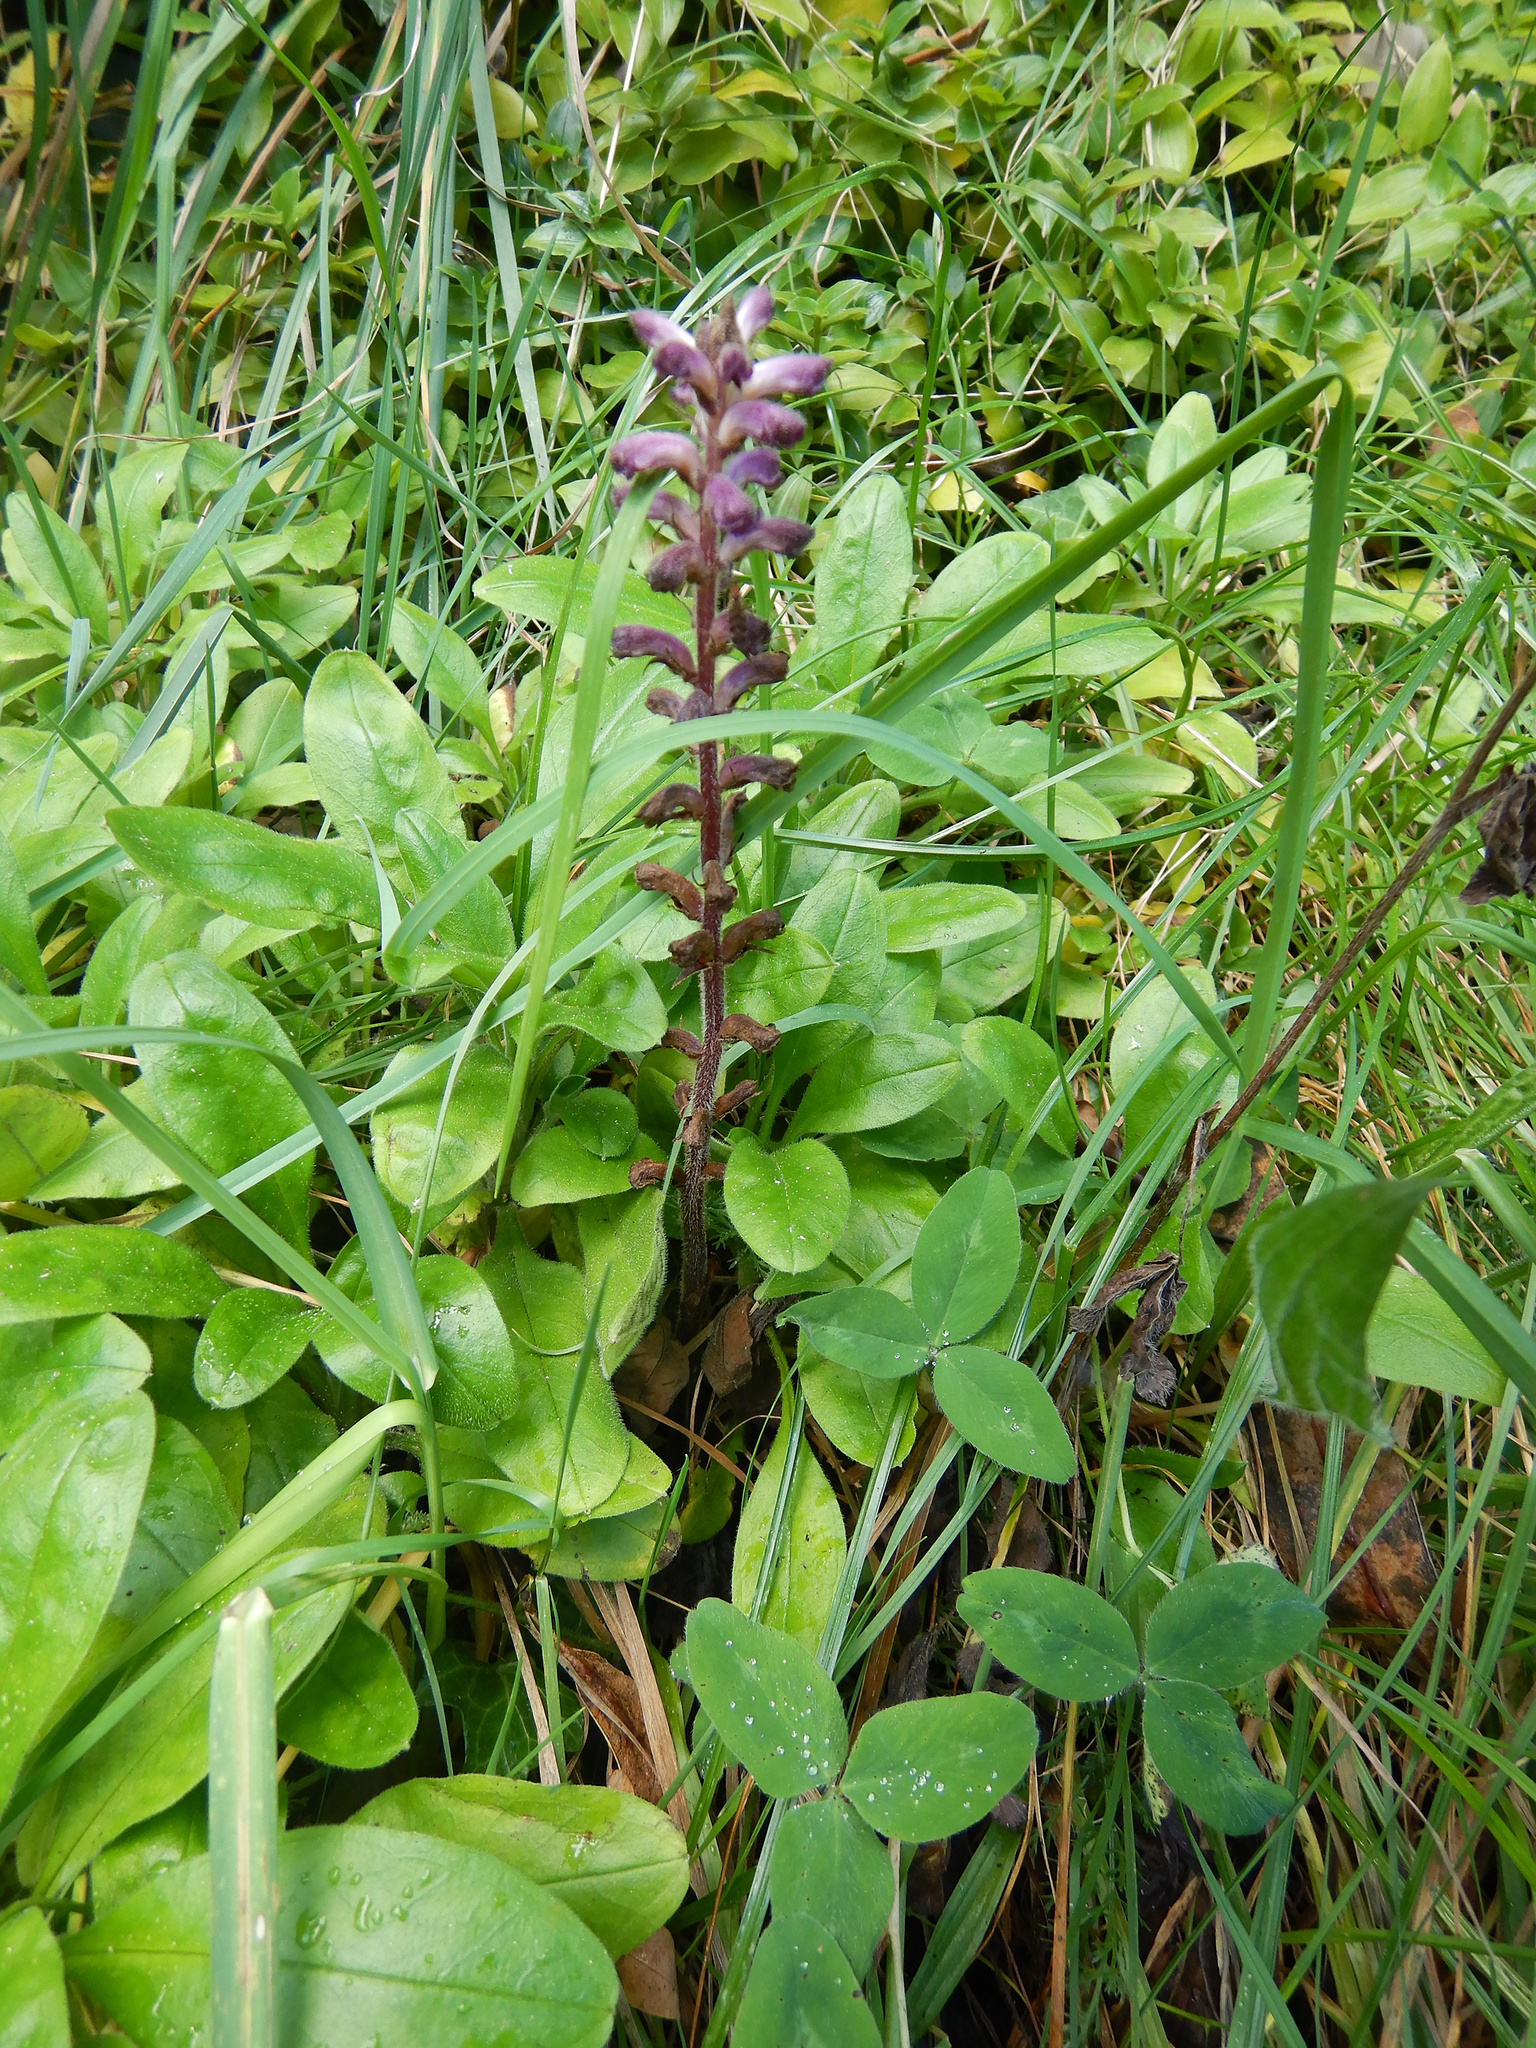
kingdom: Plantae
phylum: Tracheophyta
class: Magnoliopsida
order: Lamiales
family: Orobanchaceae
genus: Orobanche
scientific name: Orobanche minor
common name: Common broomrape
